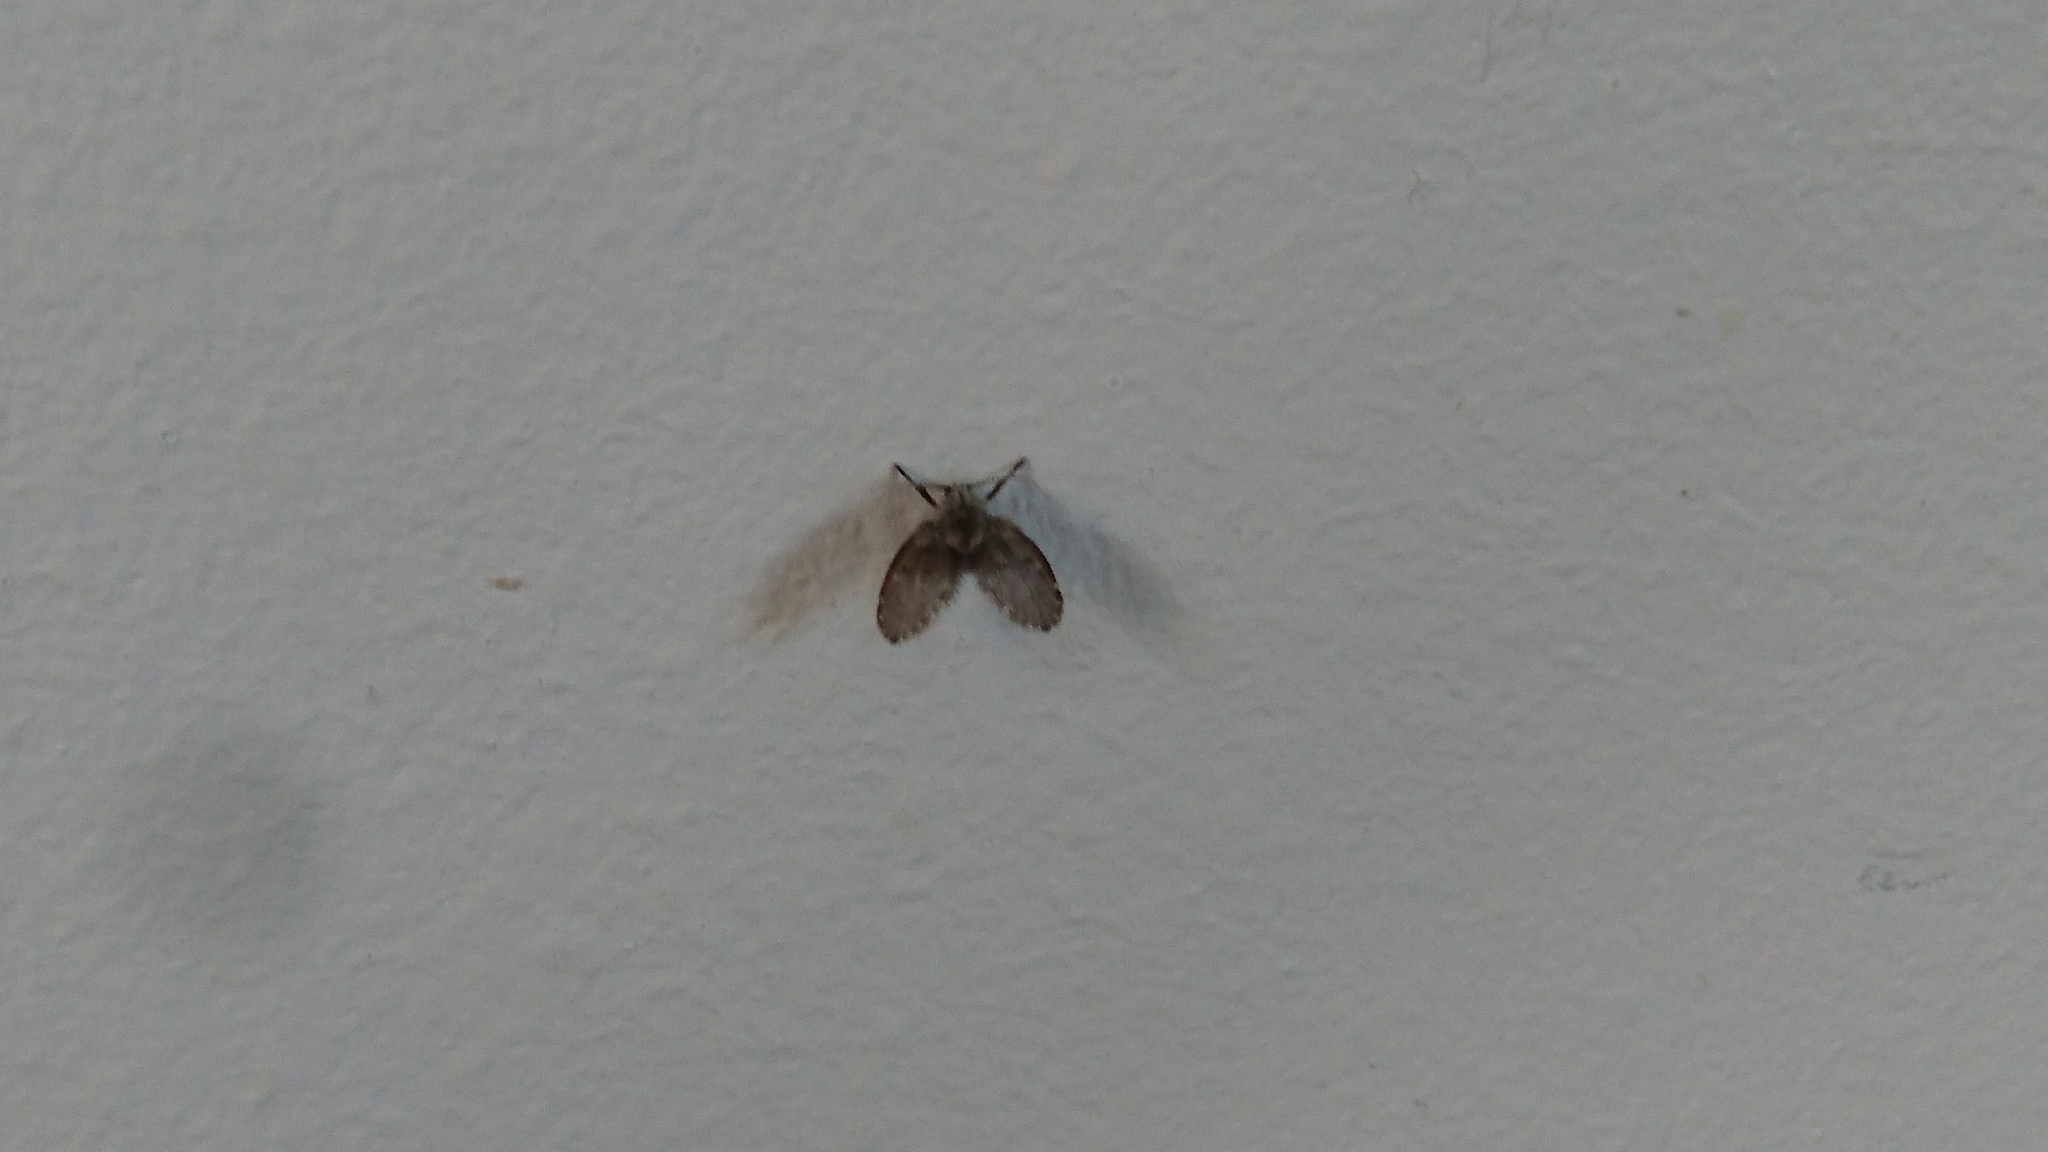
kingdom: Animalia
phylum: Arthropoda
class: Insecta
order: Diptera
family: Psychodidae
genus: Clogmia
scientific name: Clogmia albipunctatus
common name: White-spotted moth fly
